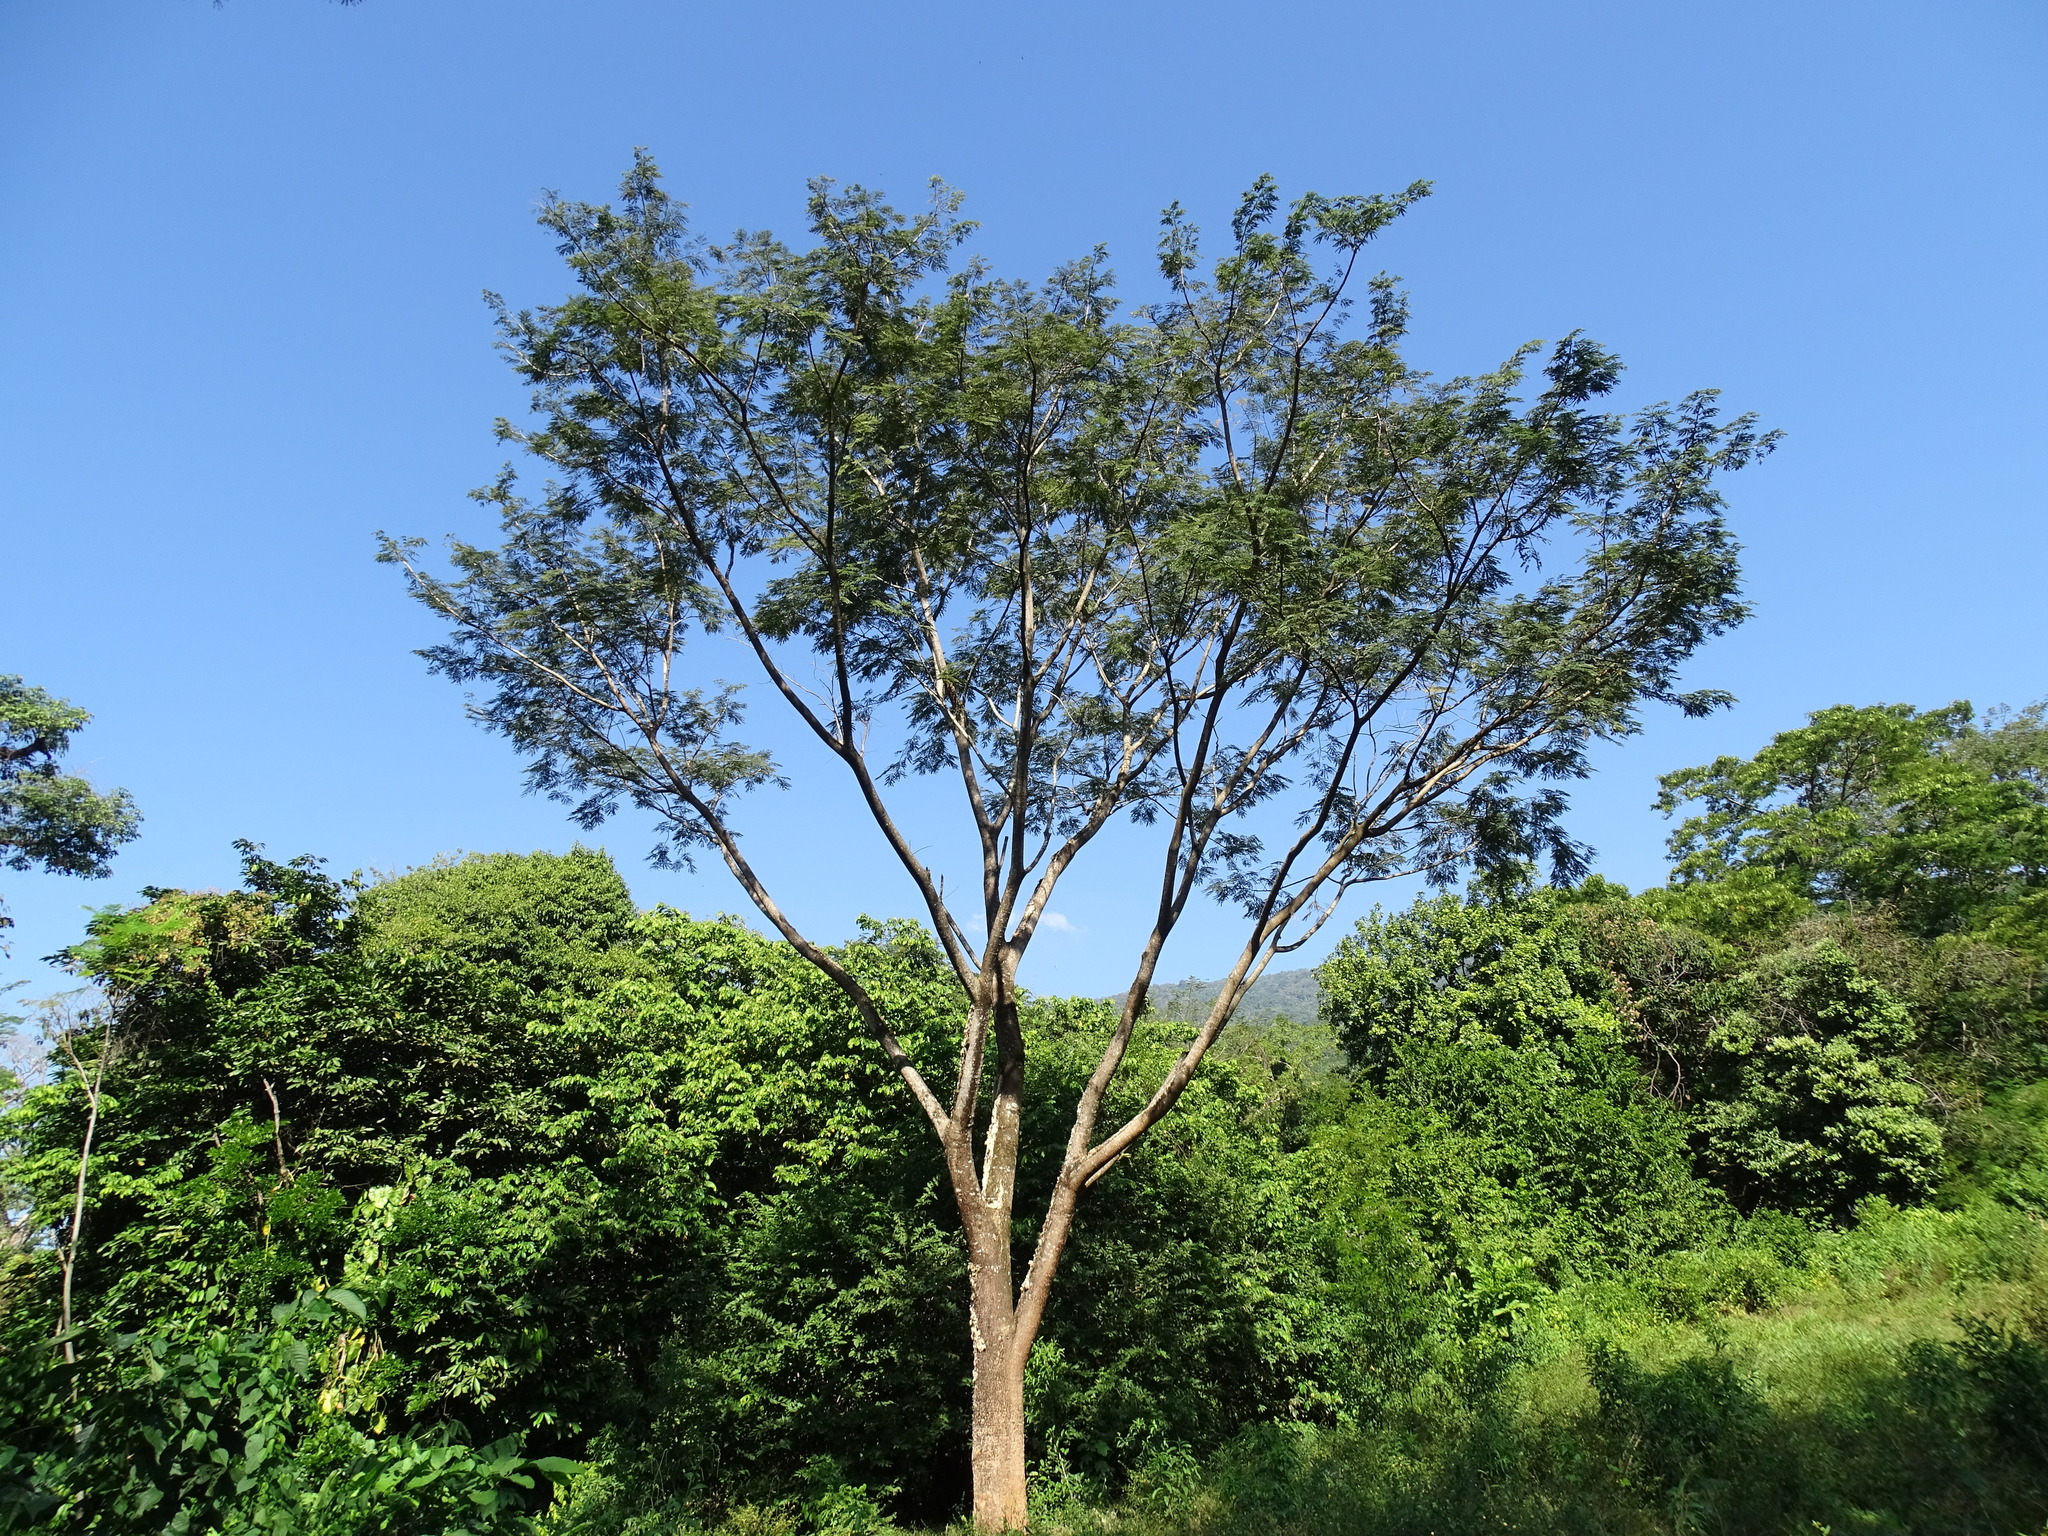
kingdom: Plantae
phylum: Tracheophyta
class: Magnoliopsida
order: Fabales
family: Fabaceae
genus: Enterolobium
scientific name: Enterolobium cyclocarpum
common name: Ear tree
